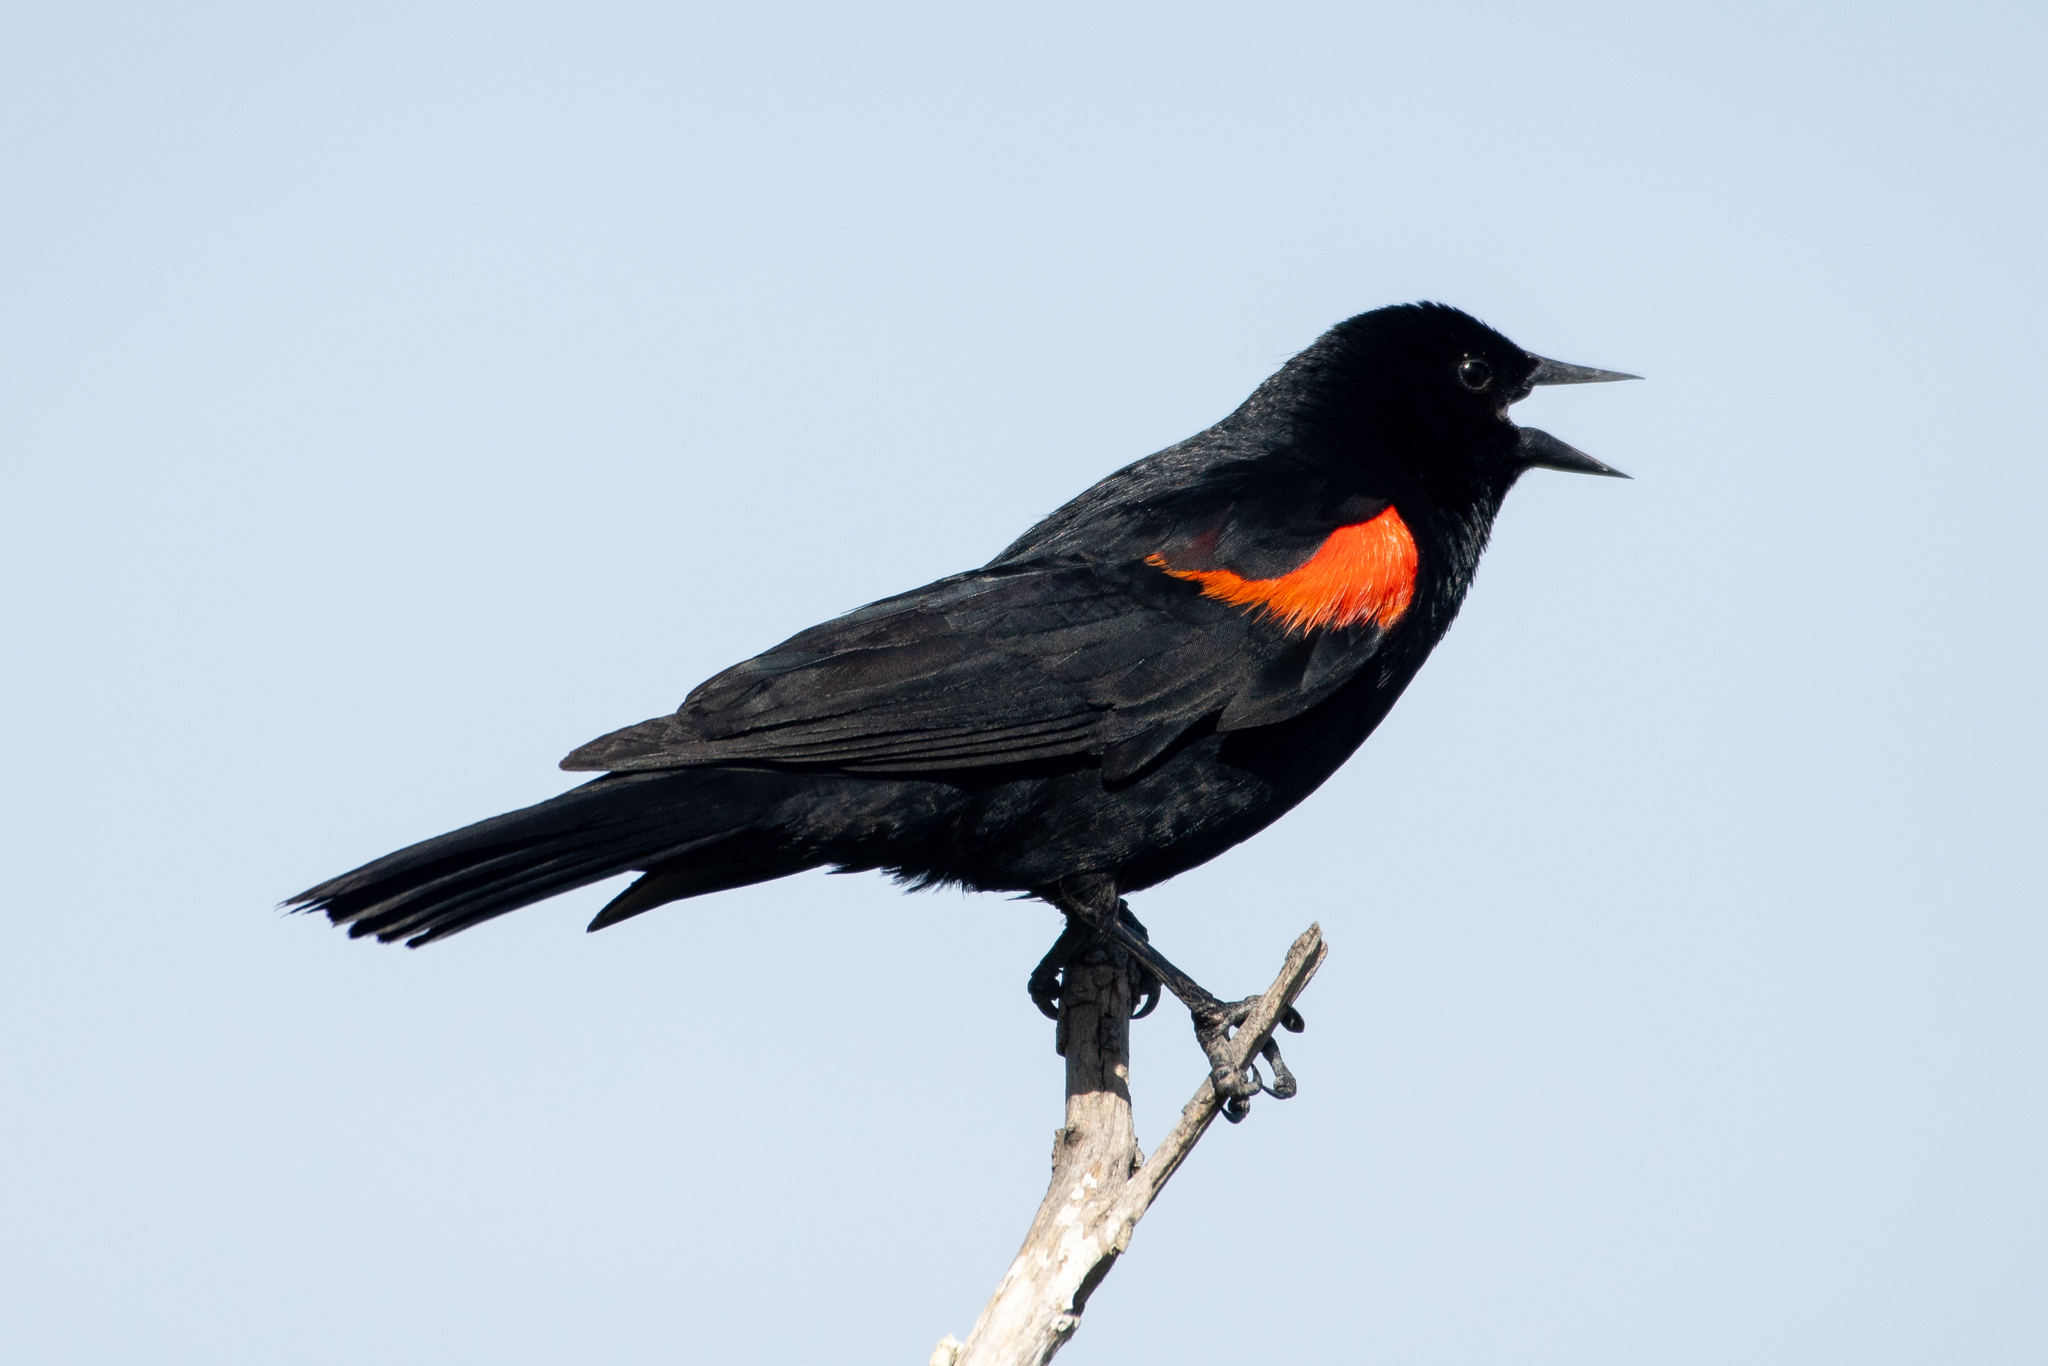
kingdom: Animalia
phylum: Chordata
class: Aves
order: Passeriformes
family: Icteridae
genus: Agelaius
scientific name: Agelaius phoeniceus
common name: Red-winged blackbird
